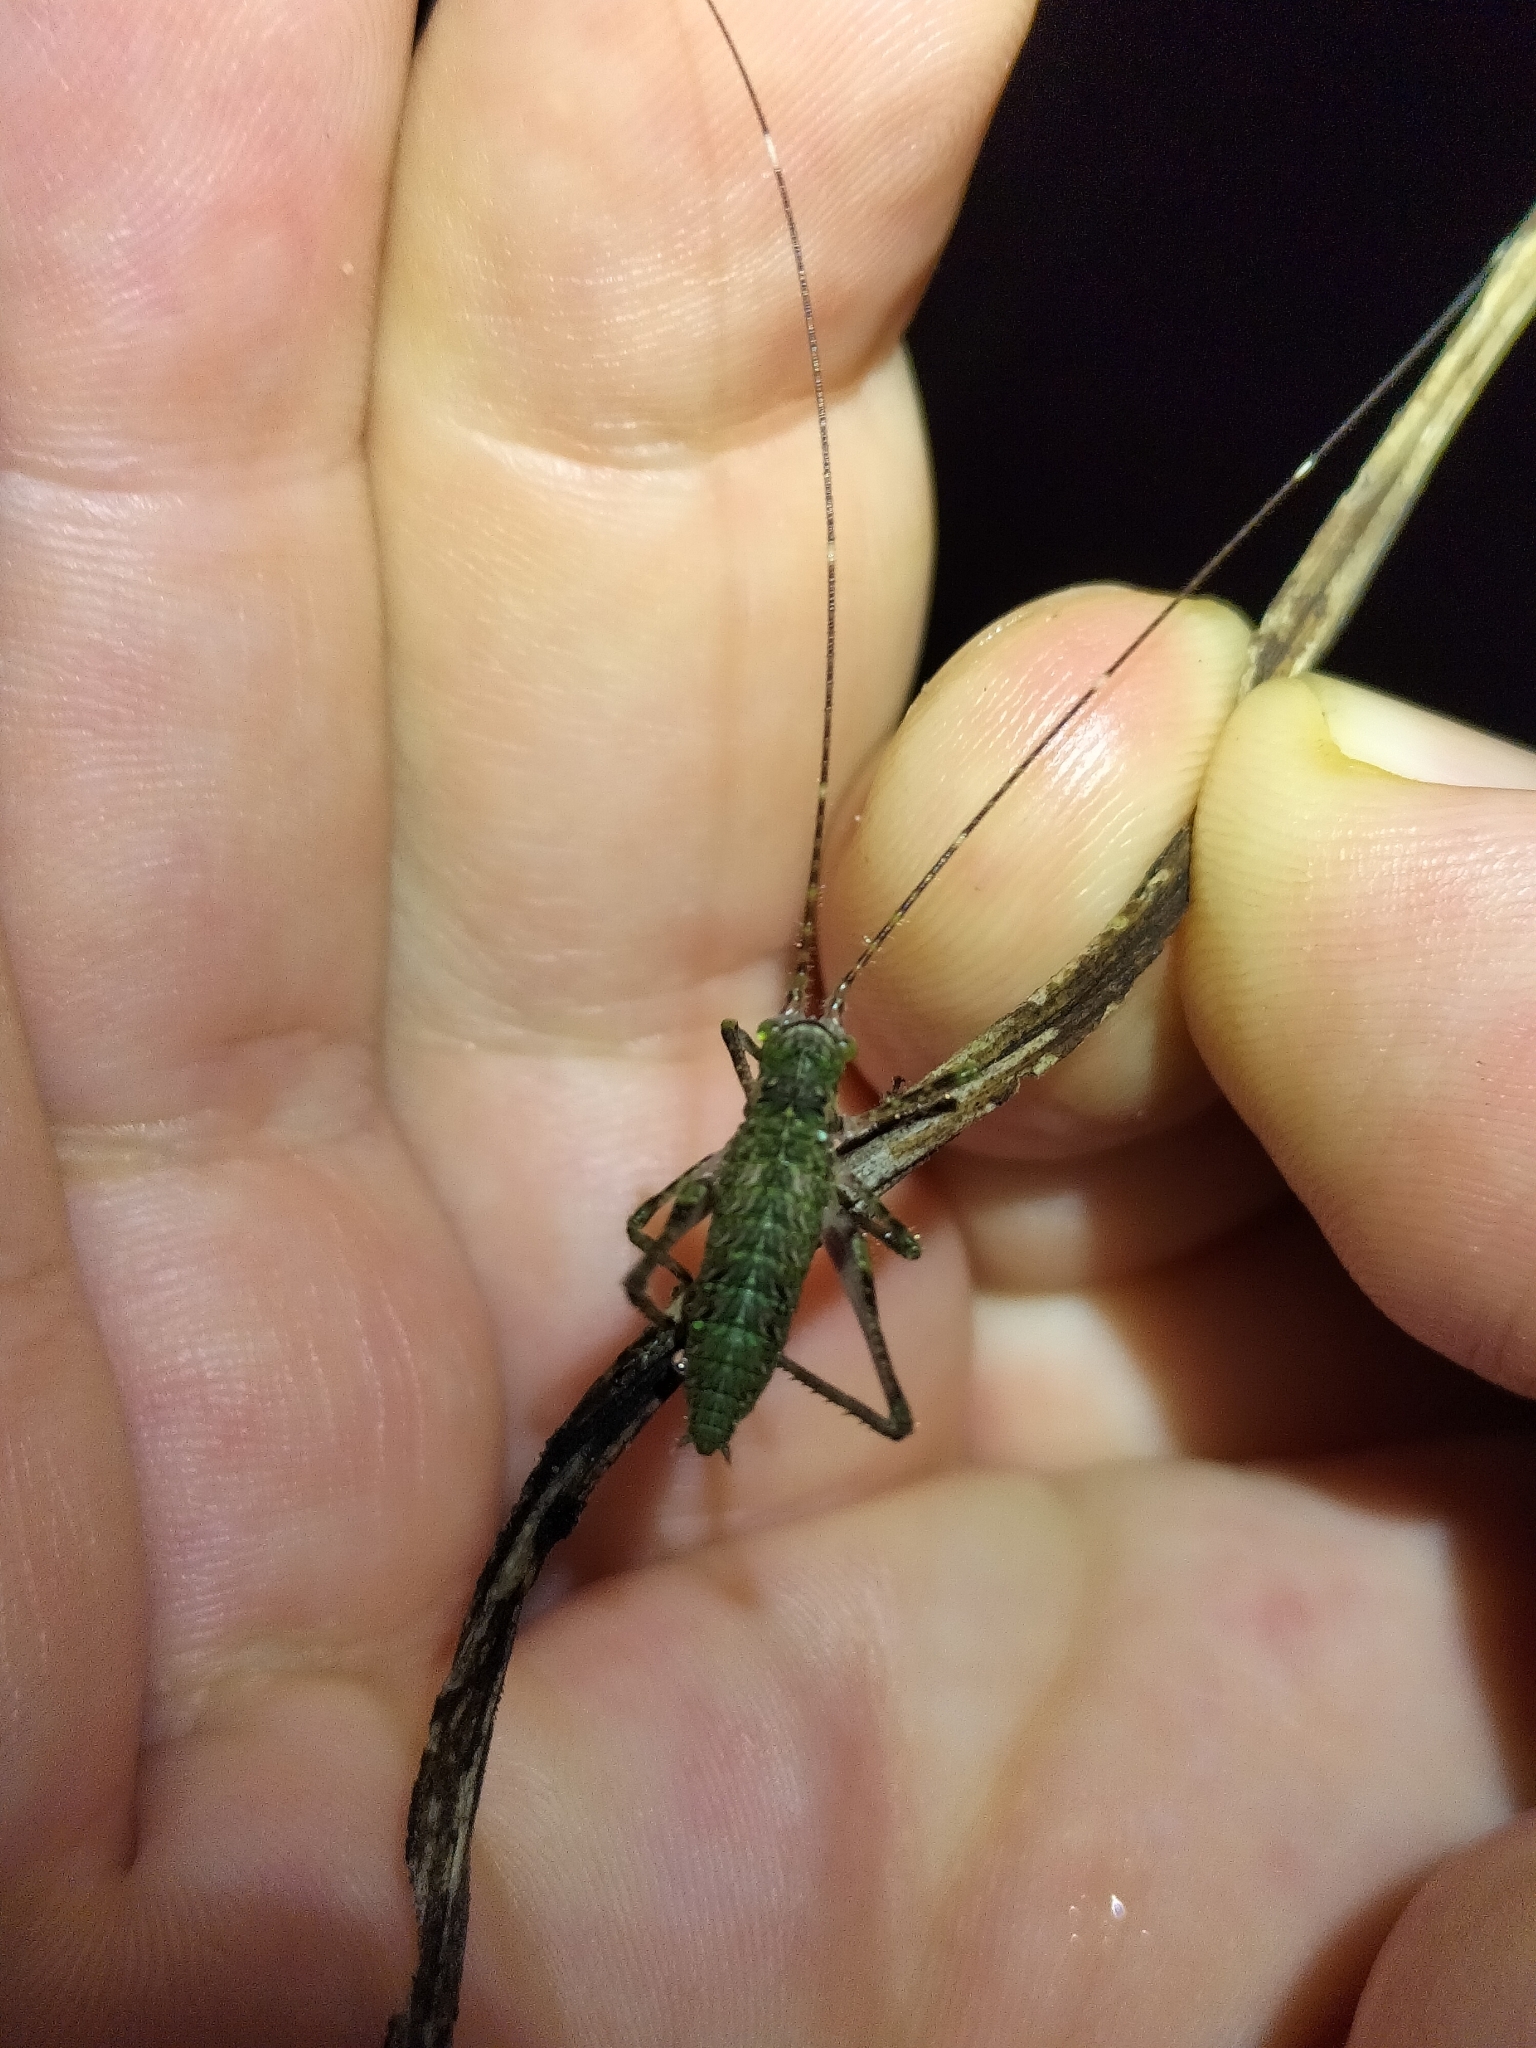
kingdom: Animalia
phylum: Arthropoda
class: Insecta
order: Orthoptera
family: Tettigoniidae
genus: Phricta
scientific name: Phricta spinosa
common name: Giant spiny forest katydid
